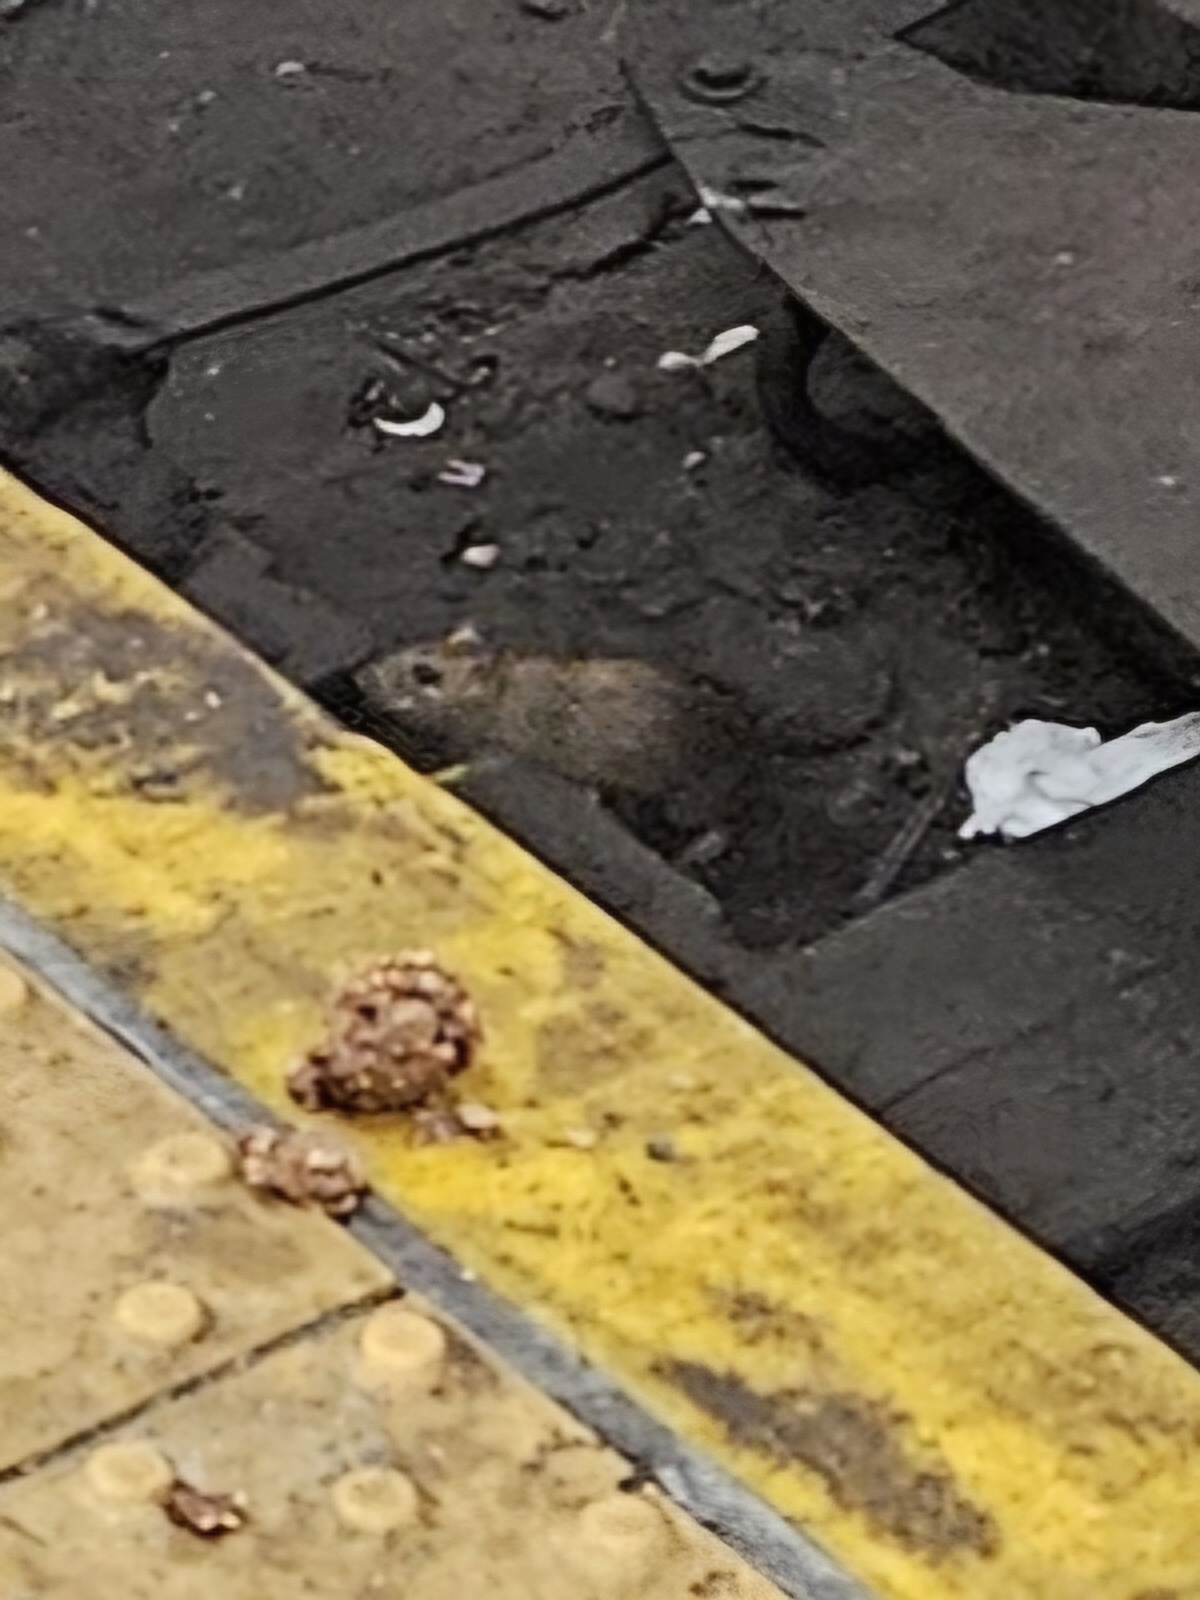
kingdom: Animalia
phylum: Chordata
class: Mammalia
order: Rodentia
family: Muridae
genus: Rattus
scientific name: Rattus norvegicus
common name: Brown rat
